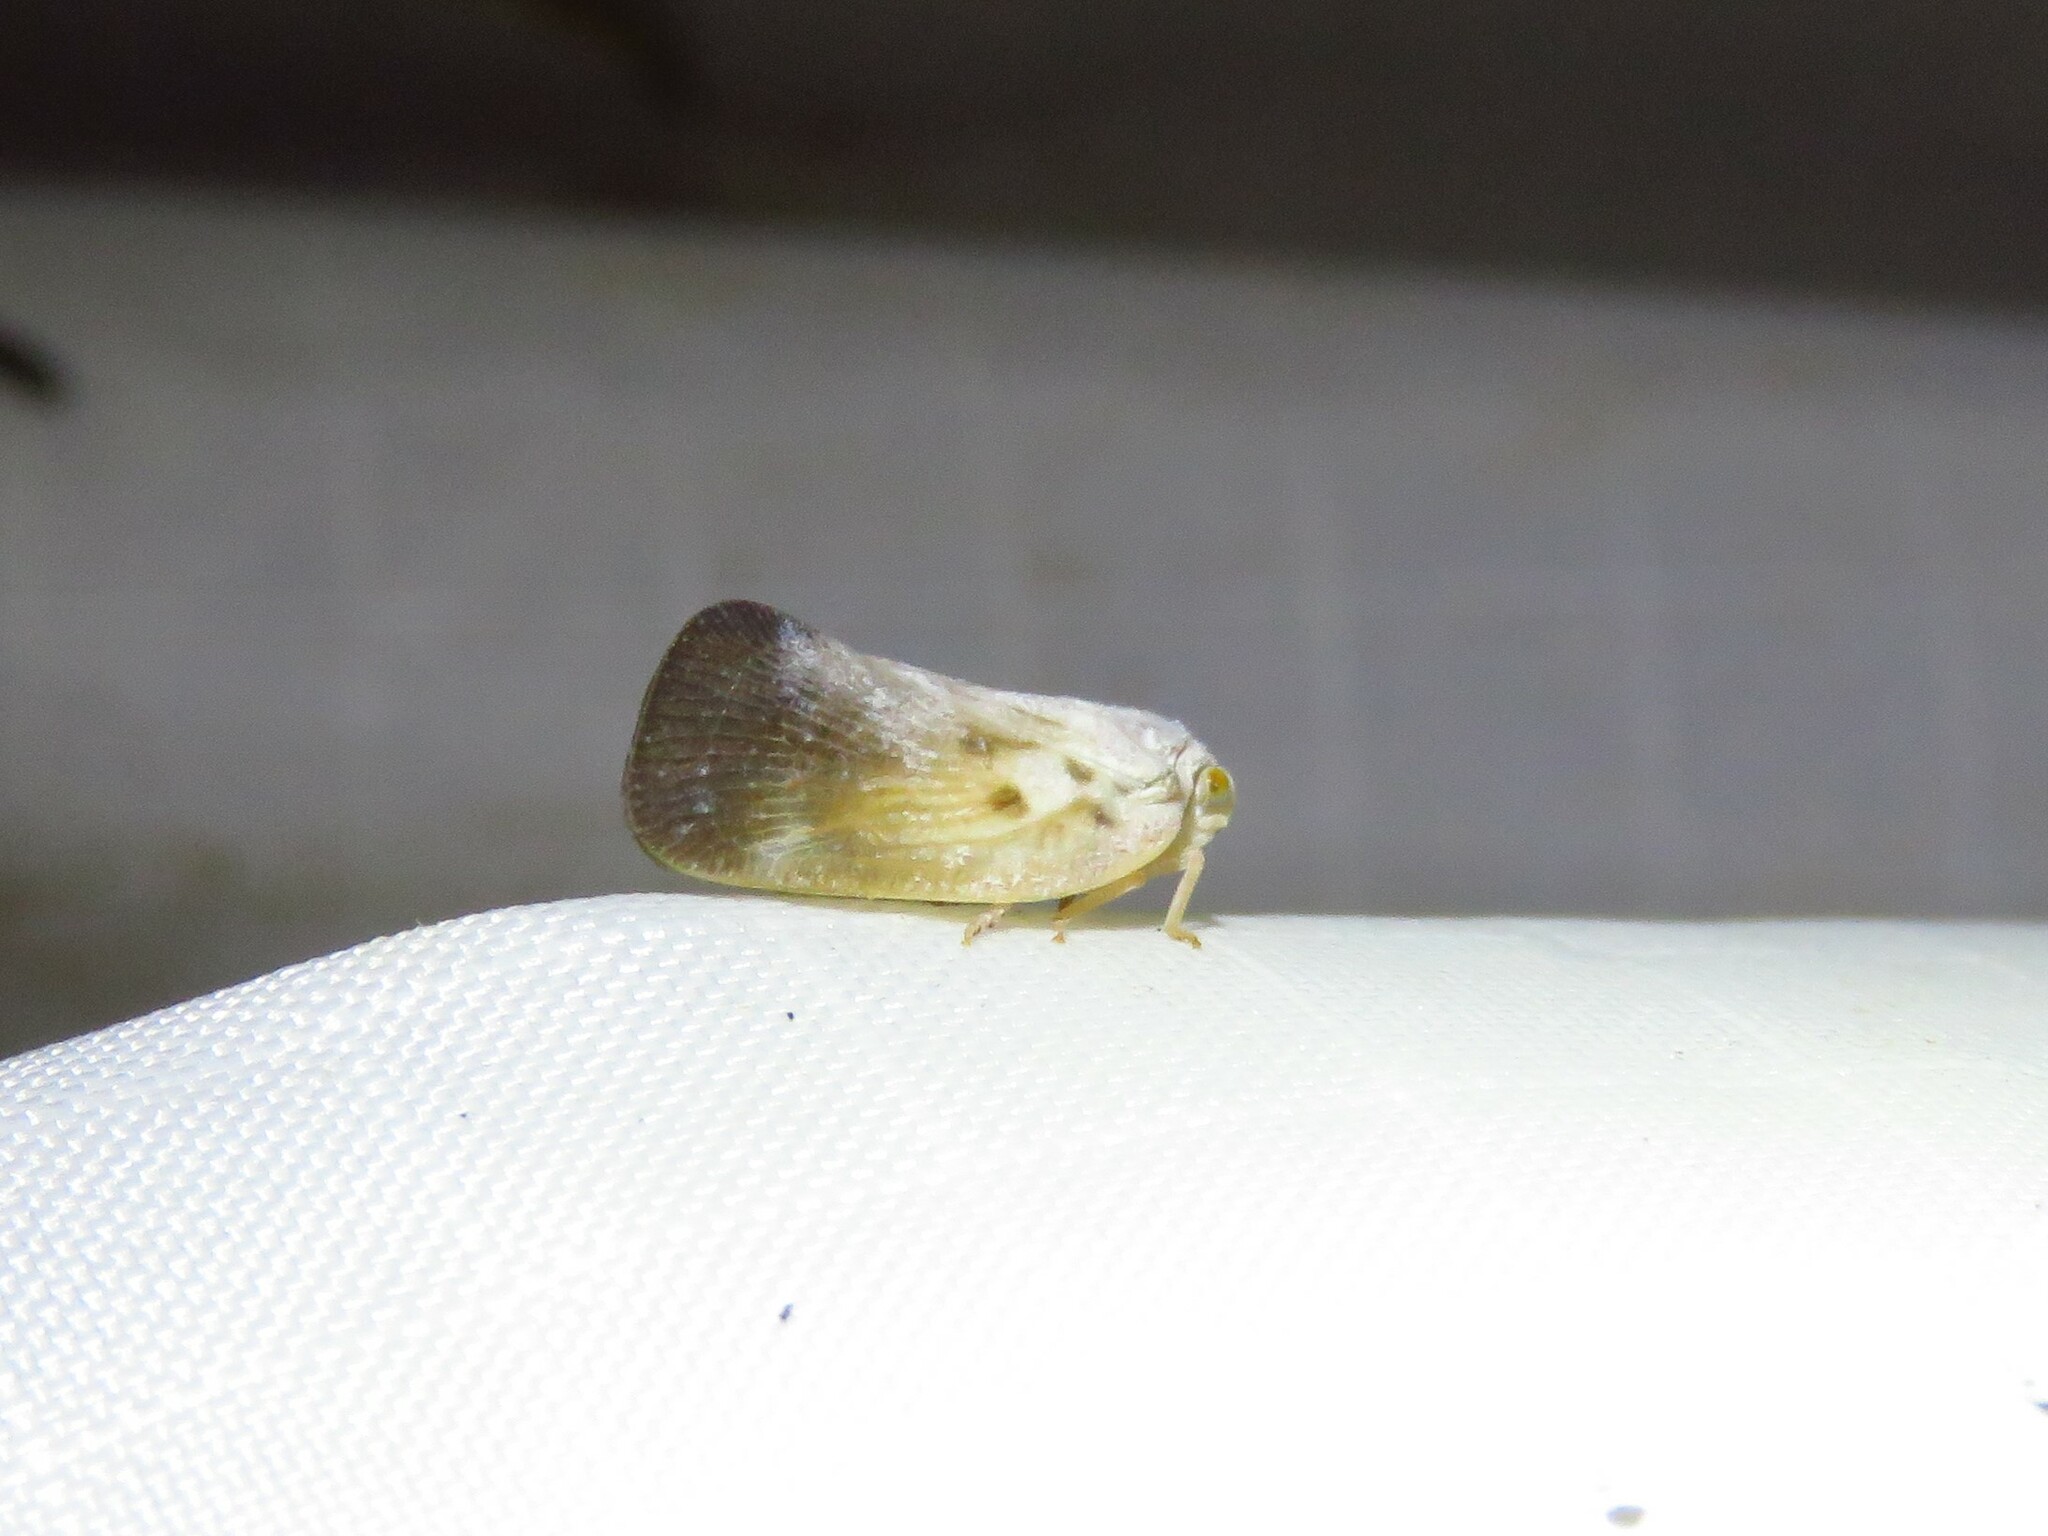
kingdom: Animalia
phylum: Arthropoda
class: Insecta
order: Hemiptera
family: Flatidae
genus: Metcalfa
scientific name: Metcalfa pruinosa
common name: Citrus flatid planthopper
